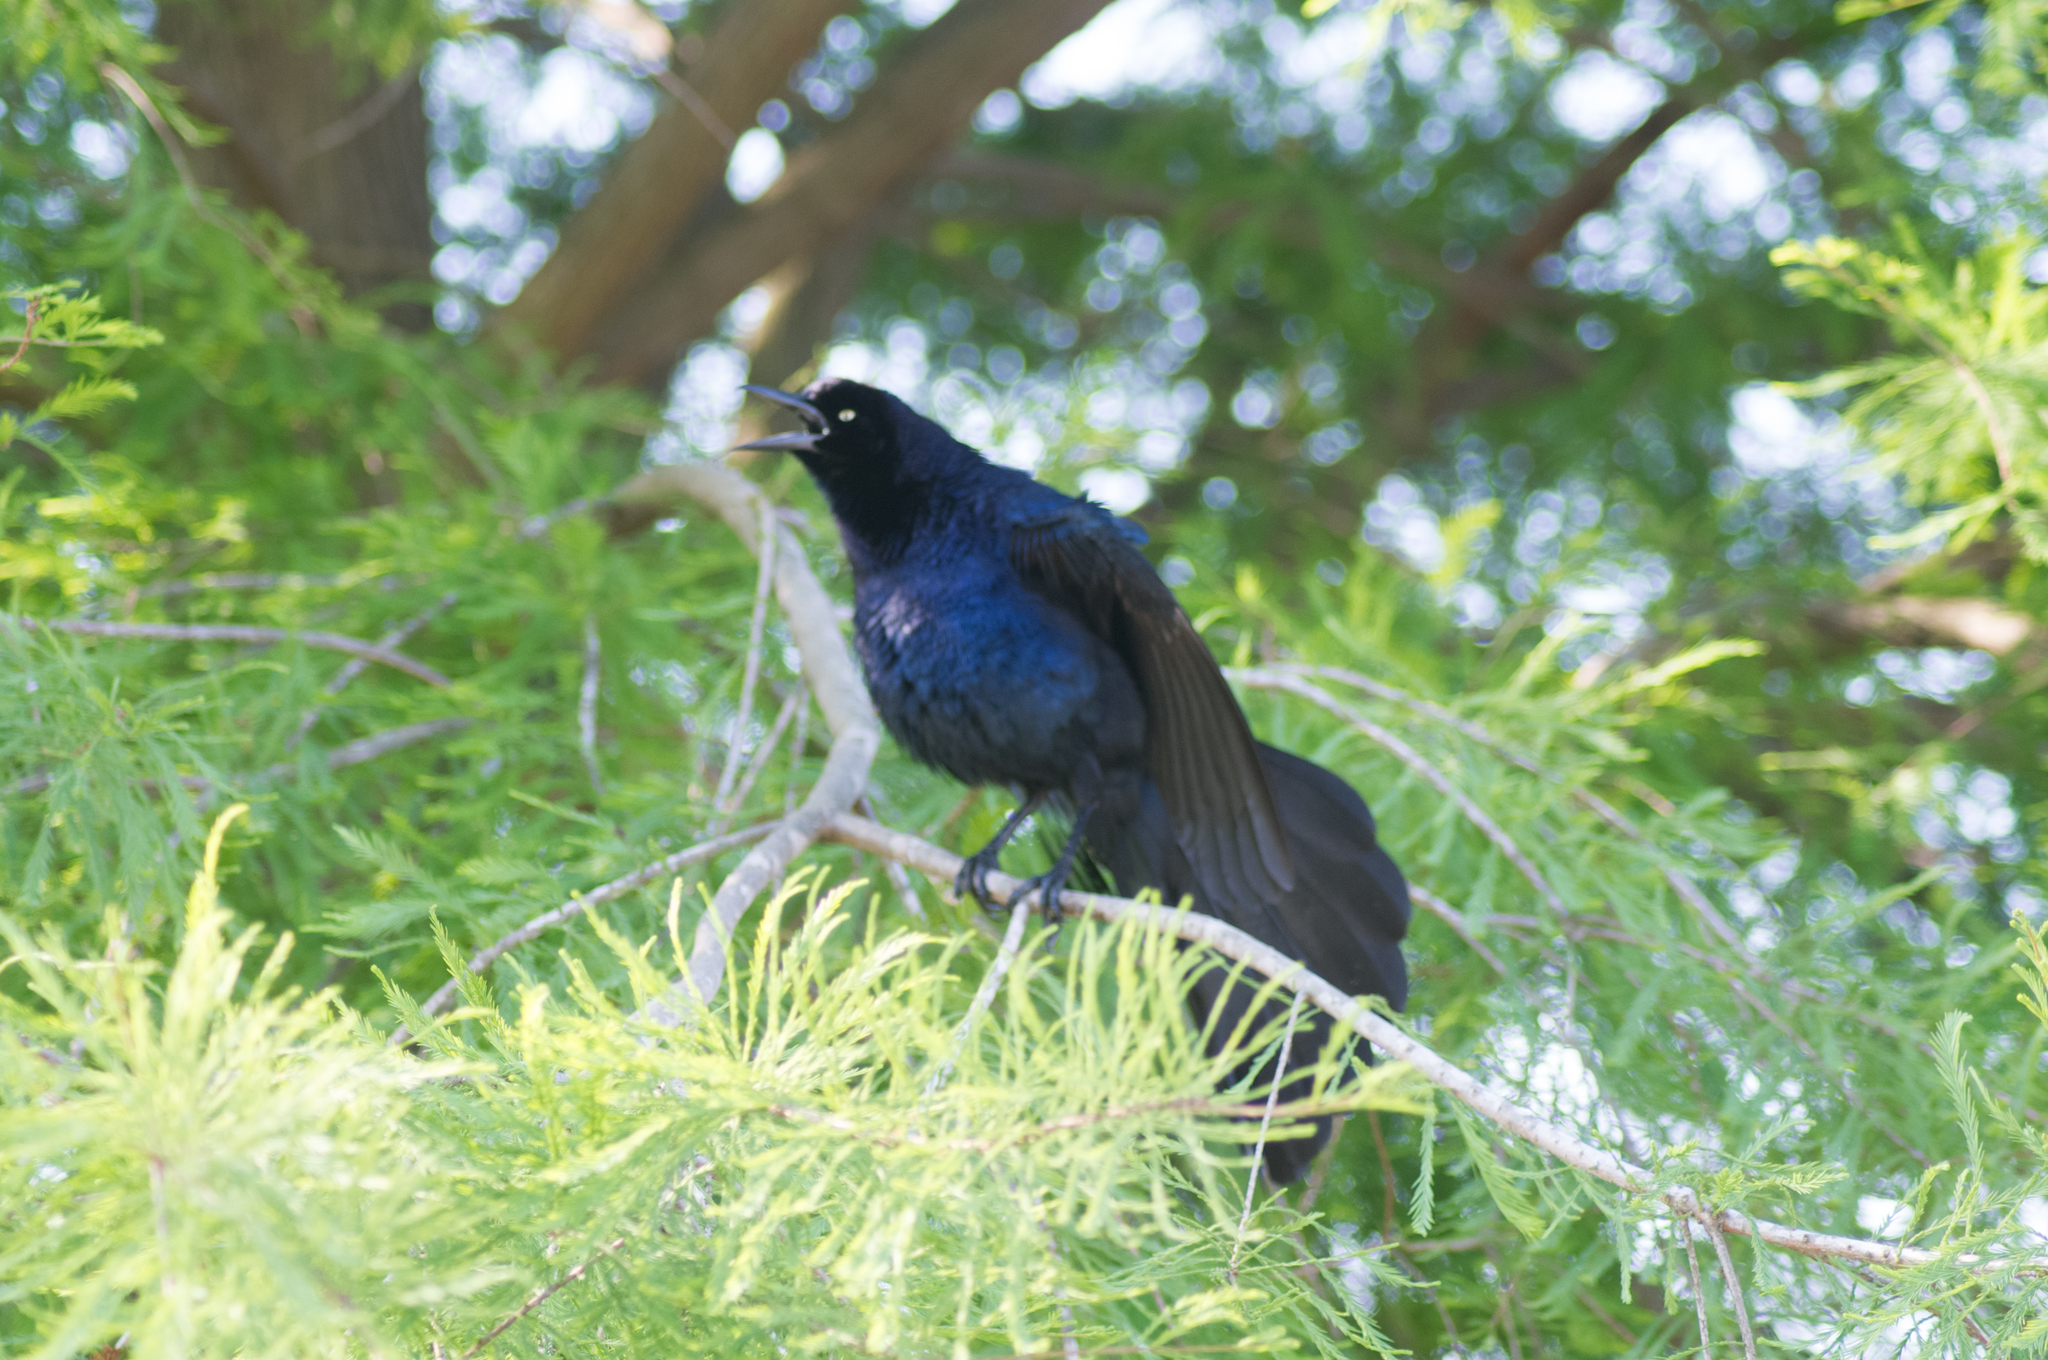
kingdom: Animalia
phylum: Chordata
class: Aves
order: Passeriformes
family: Icteridae
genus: Quiscalus
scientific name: Quiscalus mexicanus
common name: Great-tailed grackle
